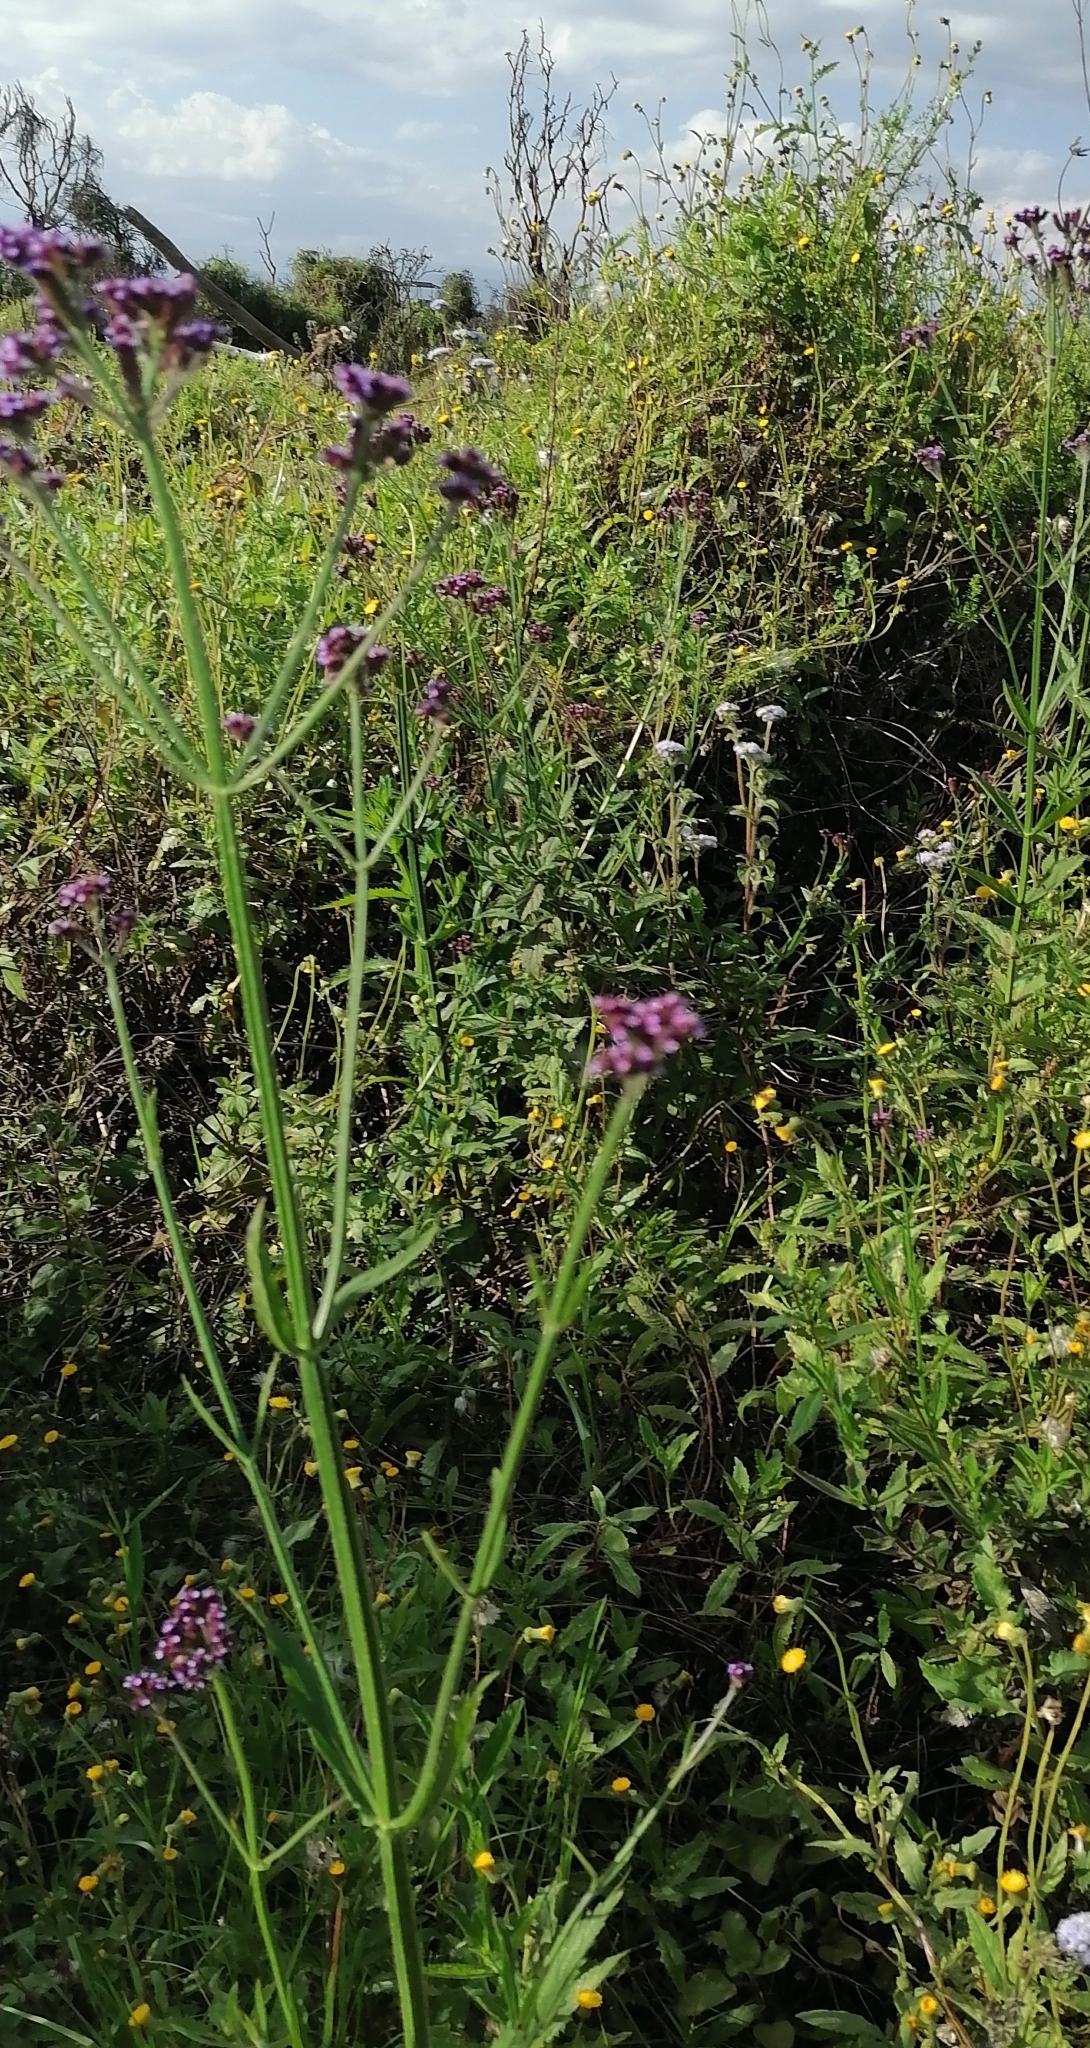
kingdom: Plantae
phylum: Tracheophyta
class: Magnoliopsida
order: Lamiales
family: Verbenaceae
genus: Verbena
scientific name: Verbena bonariensis
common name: Purpletop vervain
